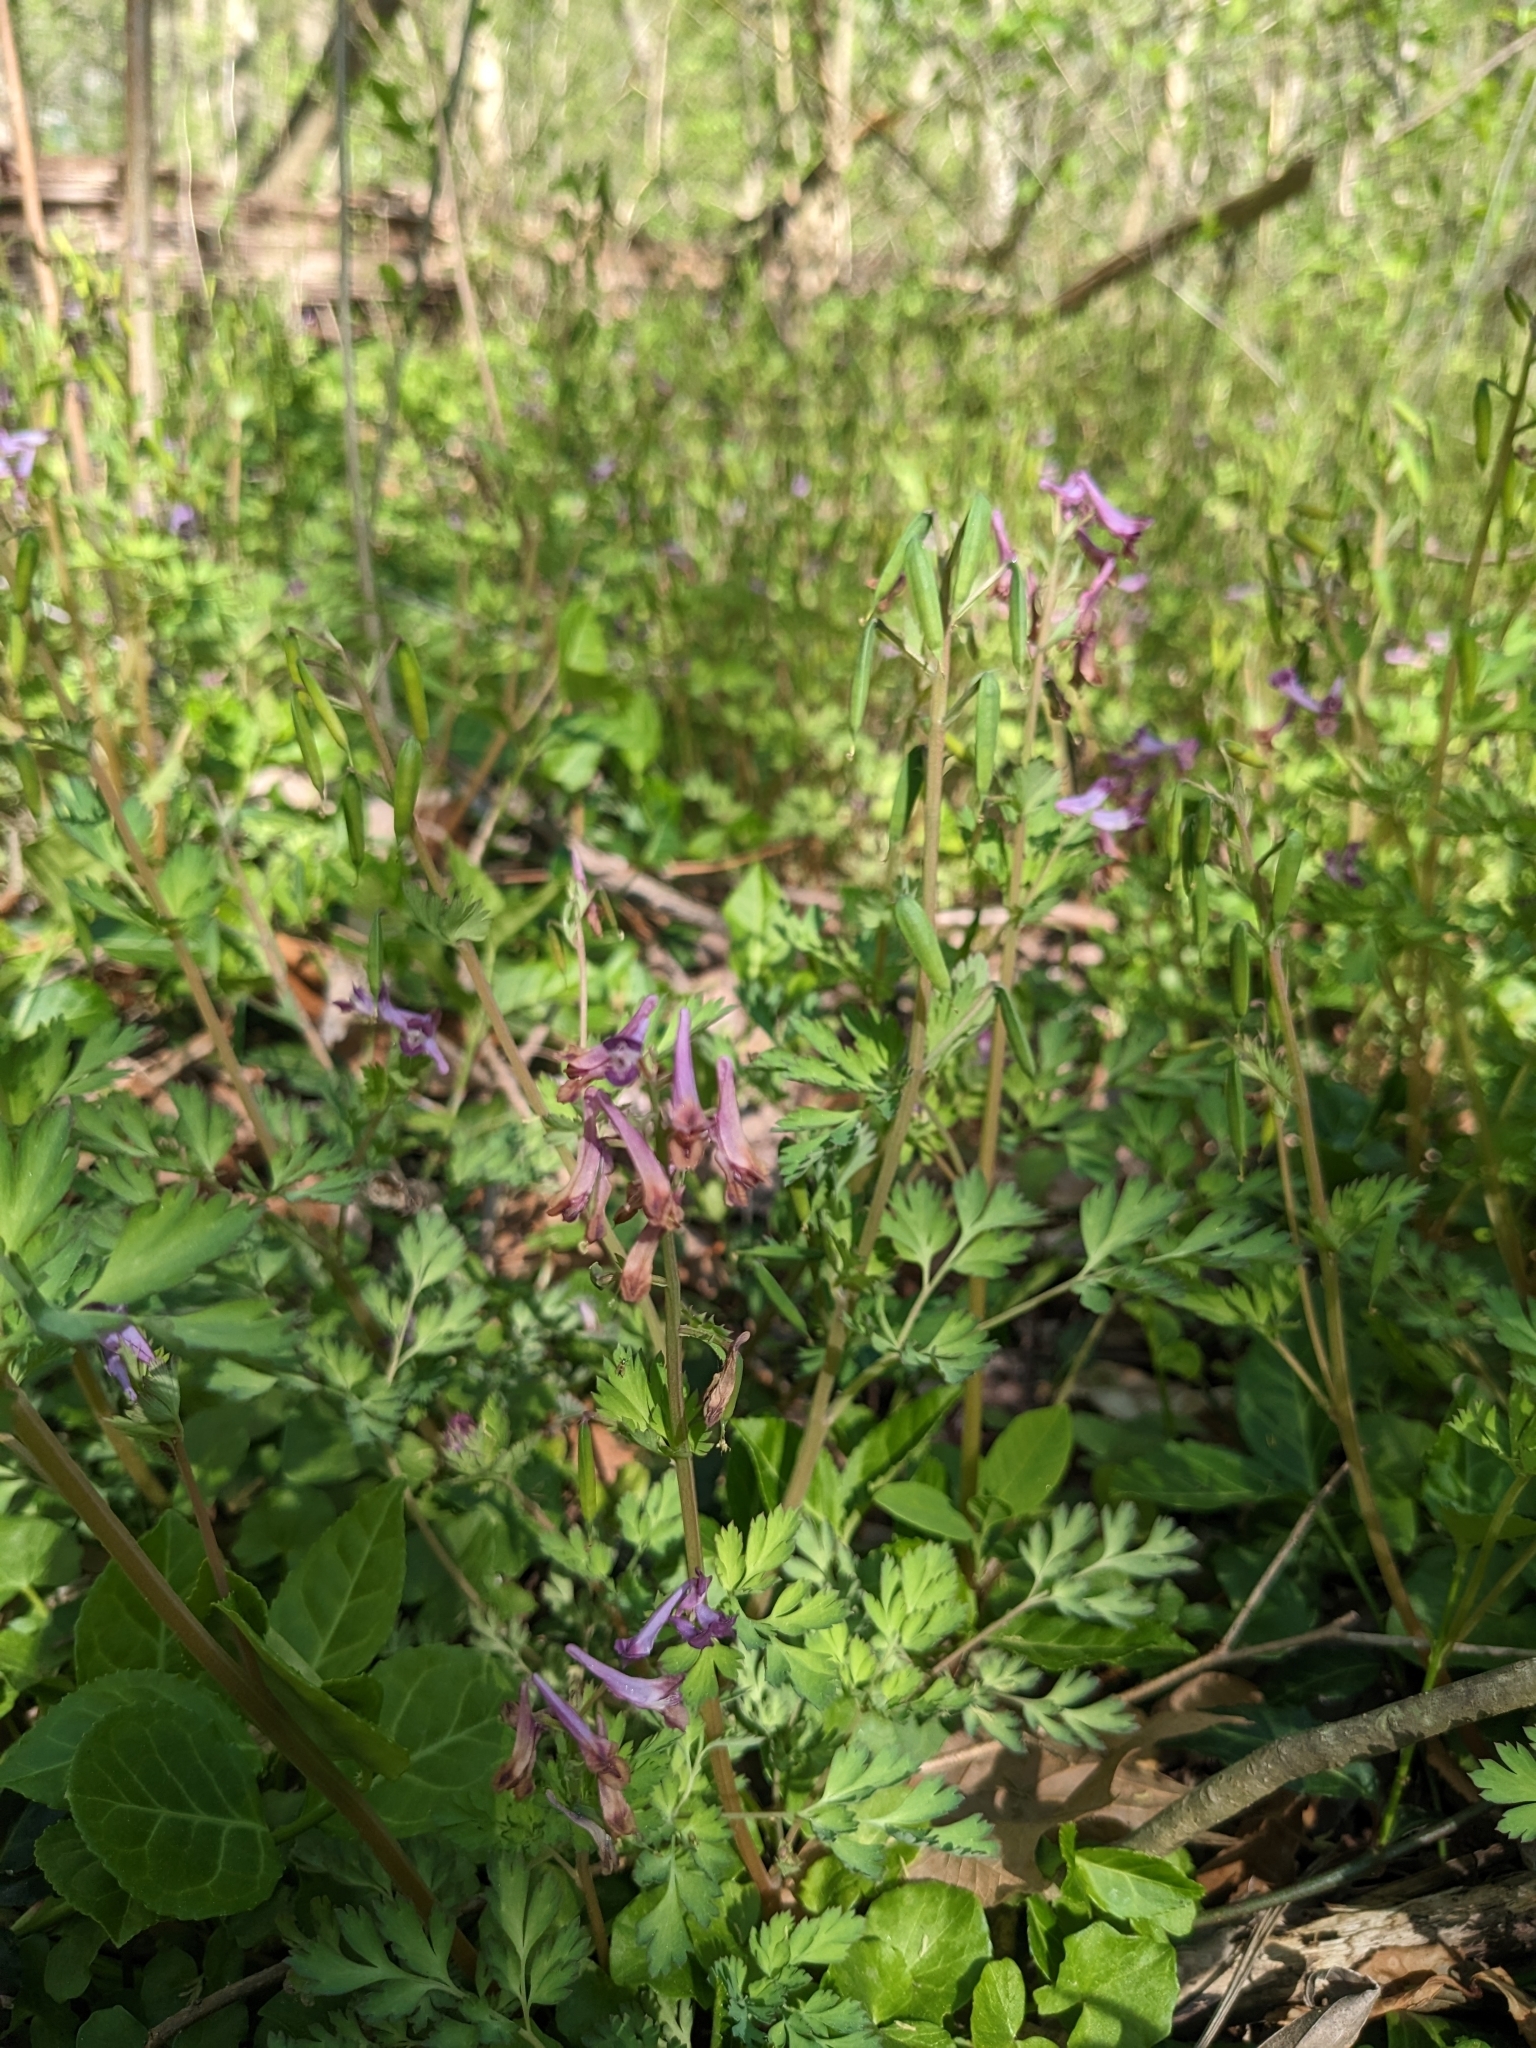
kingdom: Plantae
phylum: Tracheophyta
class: Magnoliopsida
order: Ranunculales
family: Papaveraceae
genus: Corydalis
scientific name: Corydalis incisa
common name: Incised fumewort
